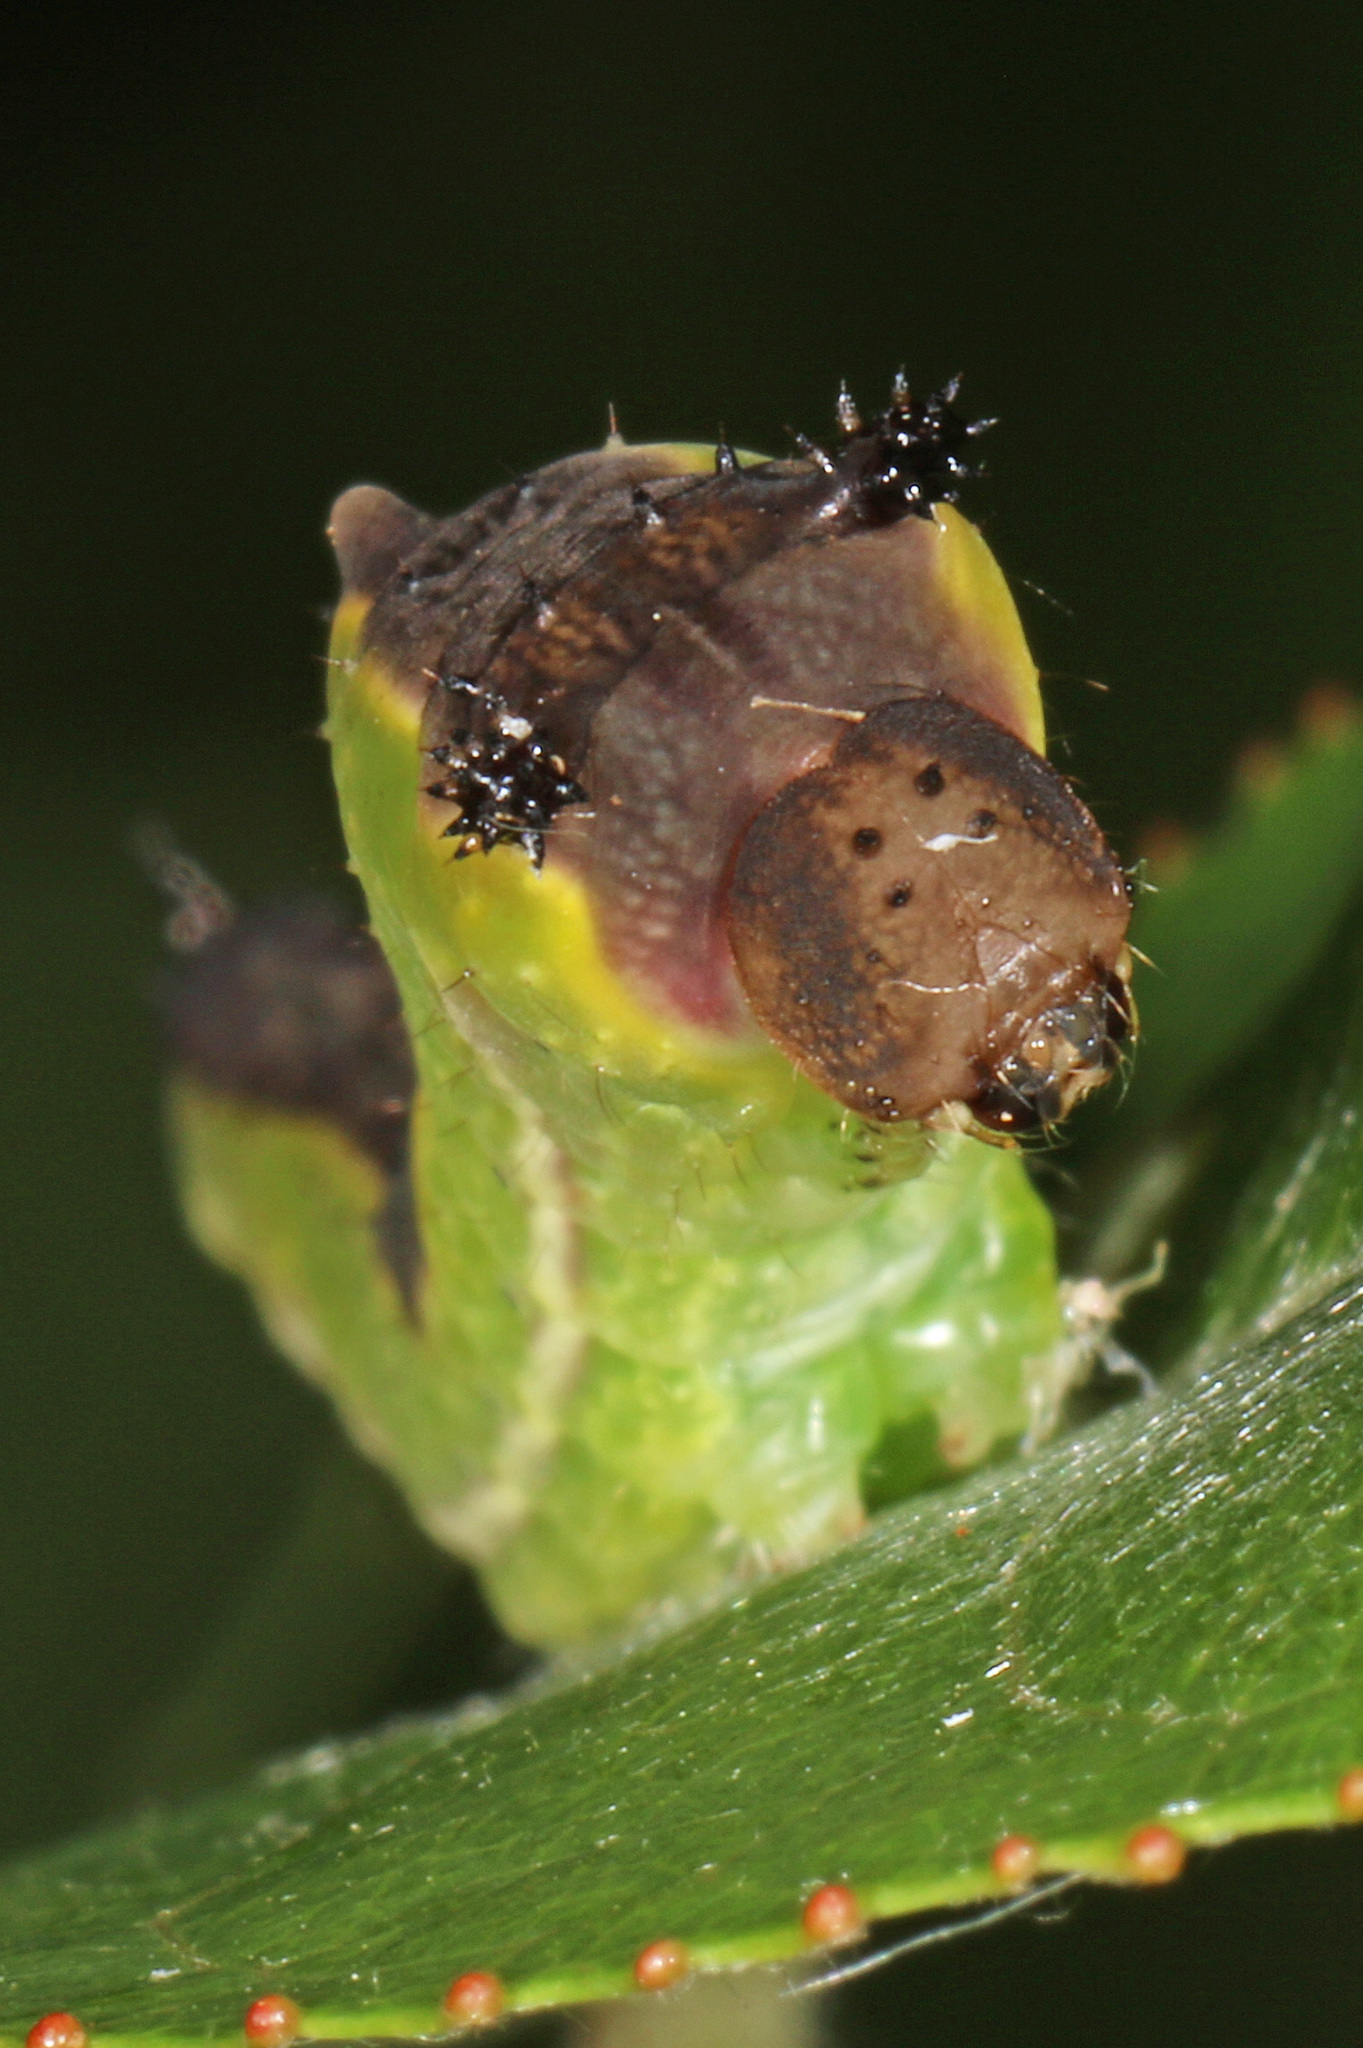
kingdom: Animalia
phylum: Arthropoda
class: Insecta
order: Lepidoptera
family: Notodontidae
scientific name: Notodontidae
